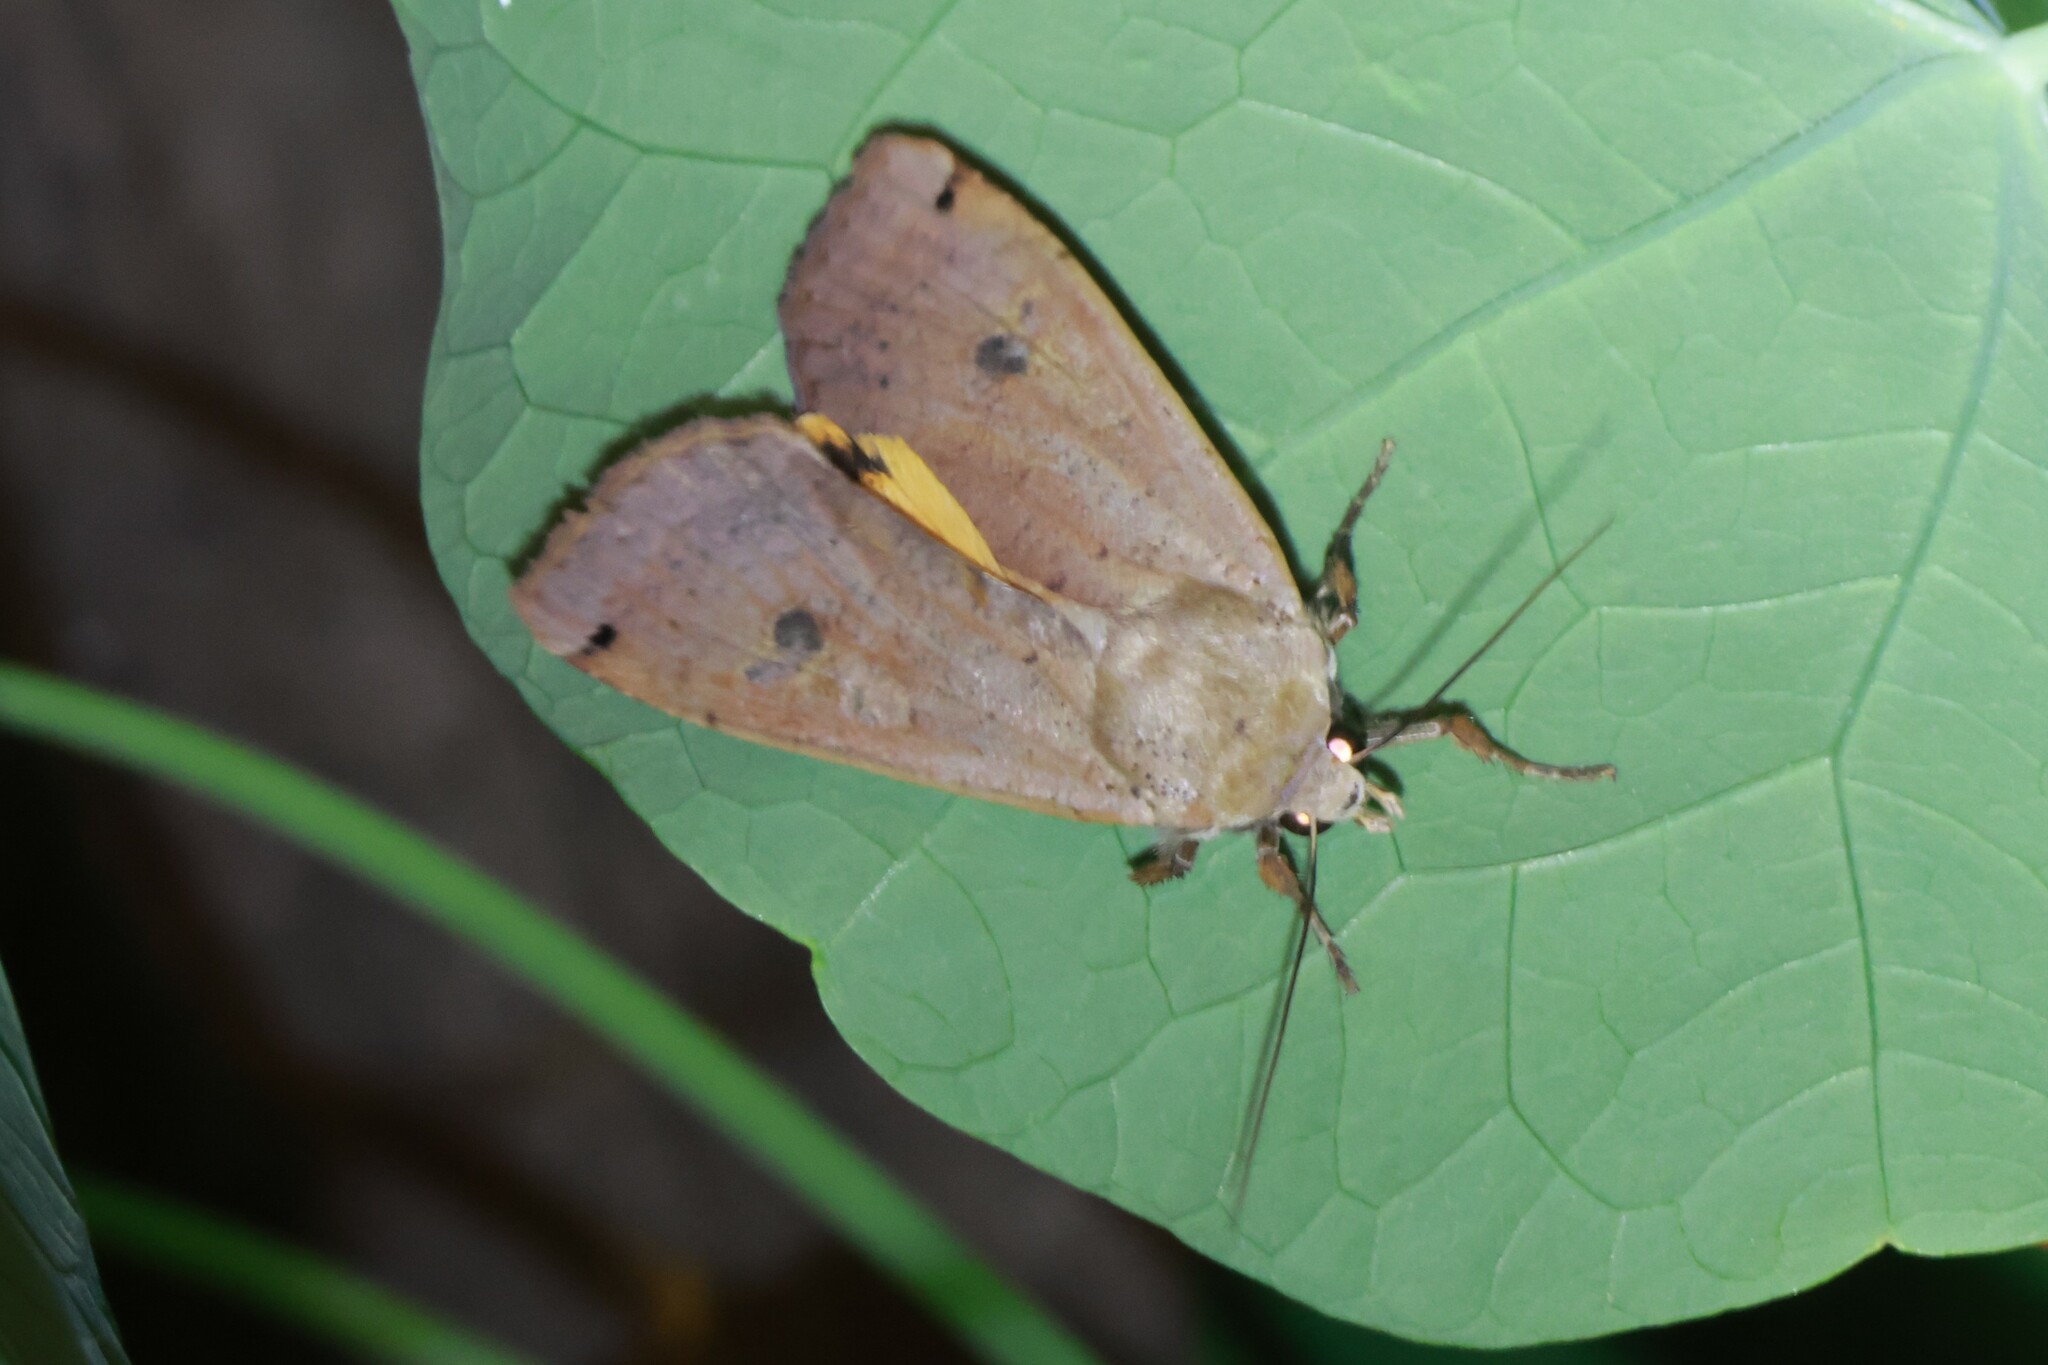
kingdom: Animalia
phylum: Arthropoda
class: Insecta
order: Lepidoptera
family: Noctuidae
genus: Noctua
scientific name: Noctua pronuba
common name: Large yellow underwing
